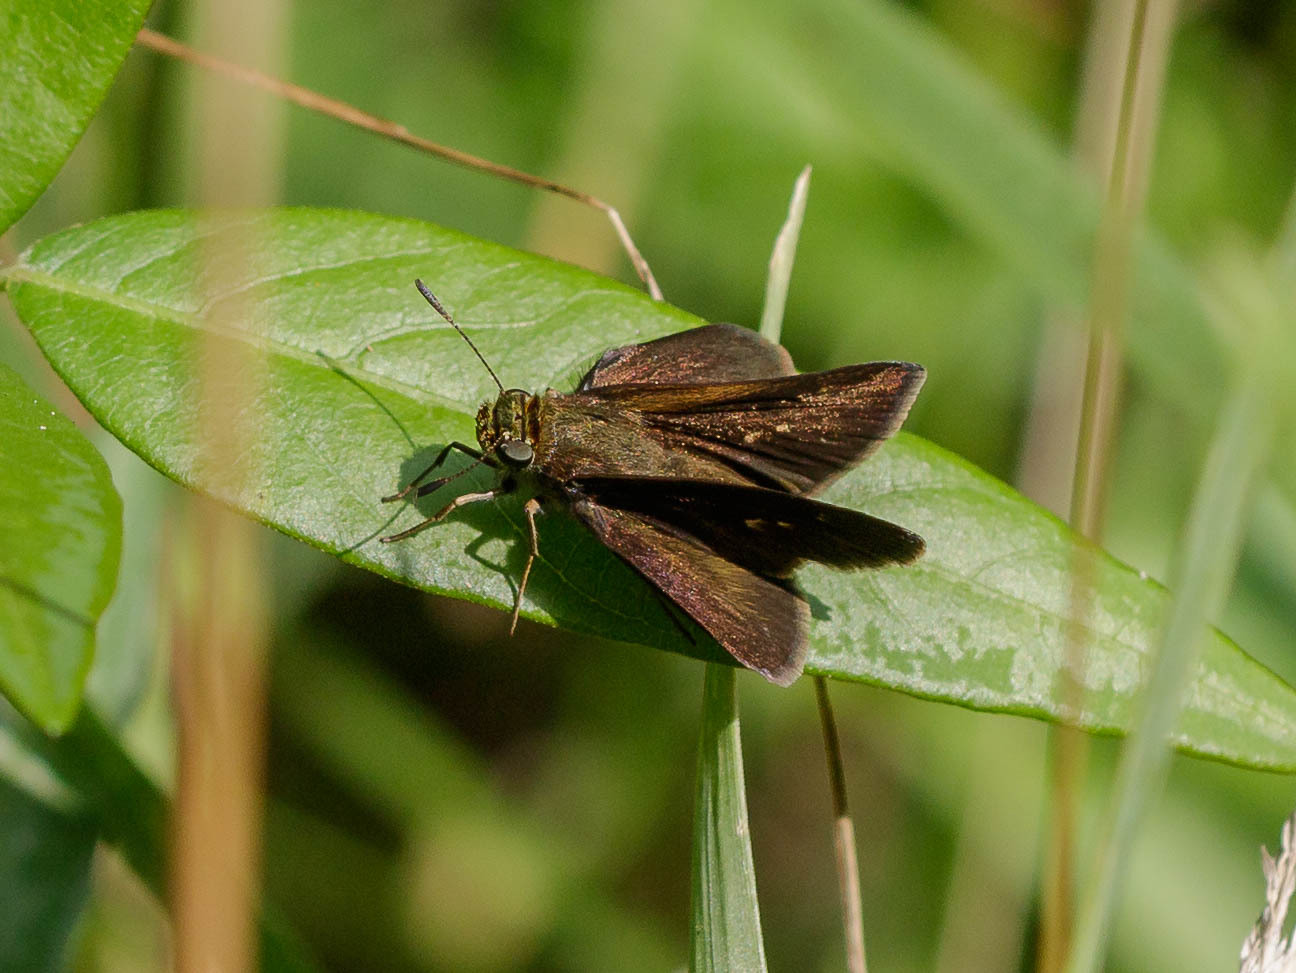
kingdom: Animalia
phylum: Arthropoda
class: Insecta
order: Lepidoptera
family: Hesperiidae
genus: Euphyes
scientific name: Euphyes vestris
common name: Dun skipper
